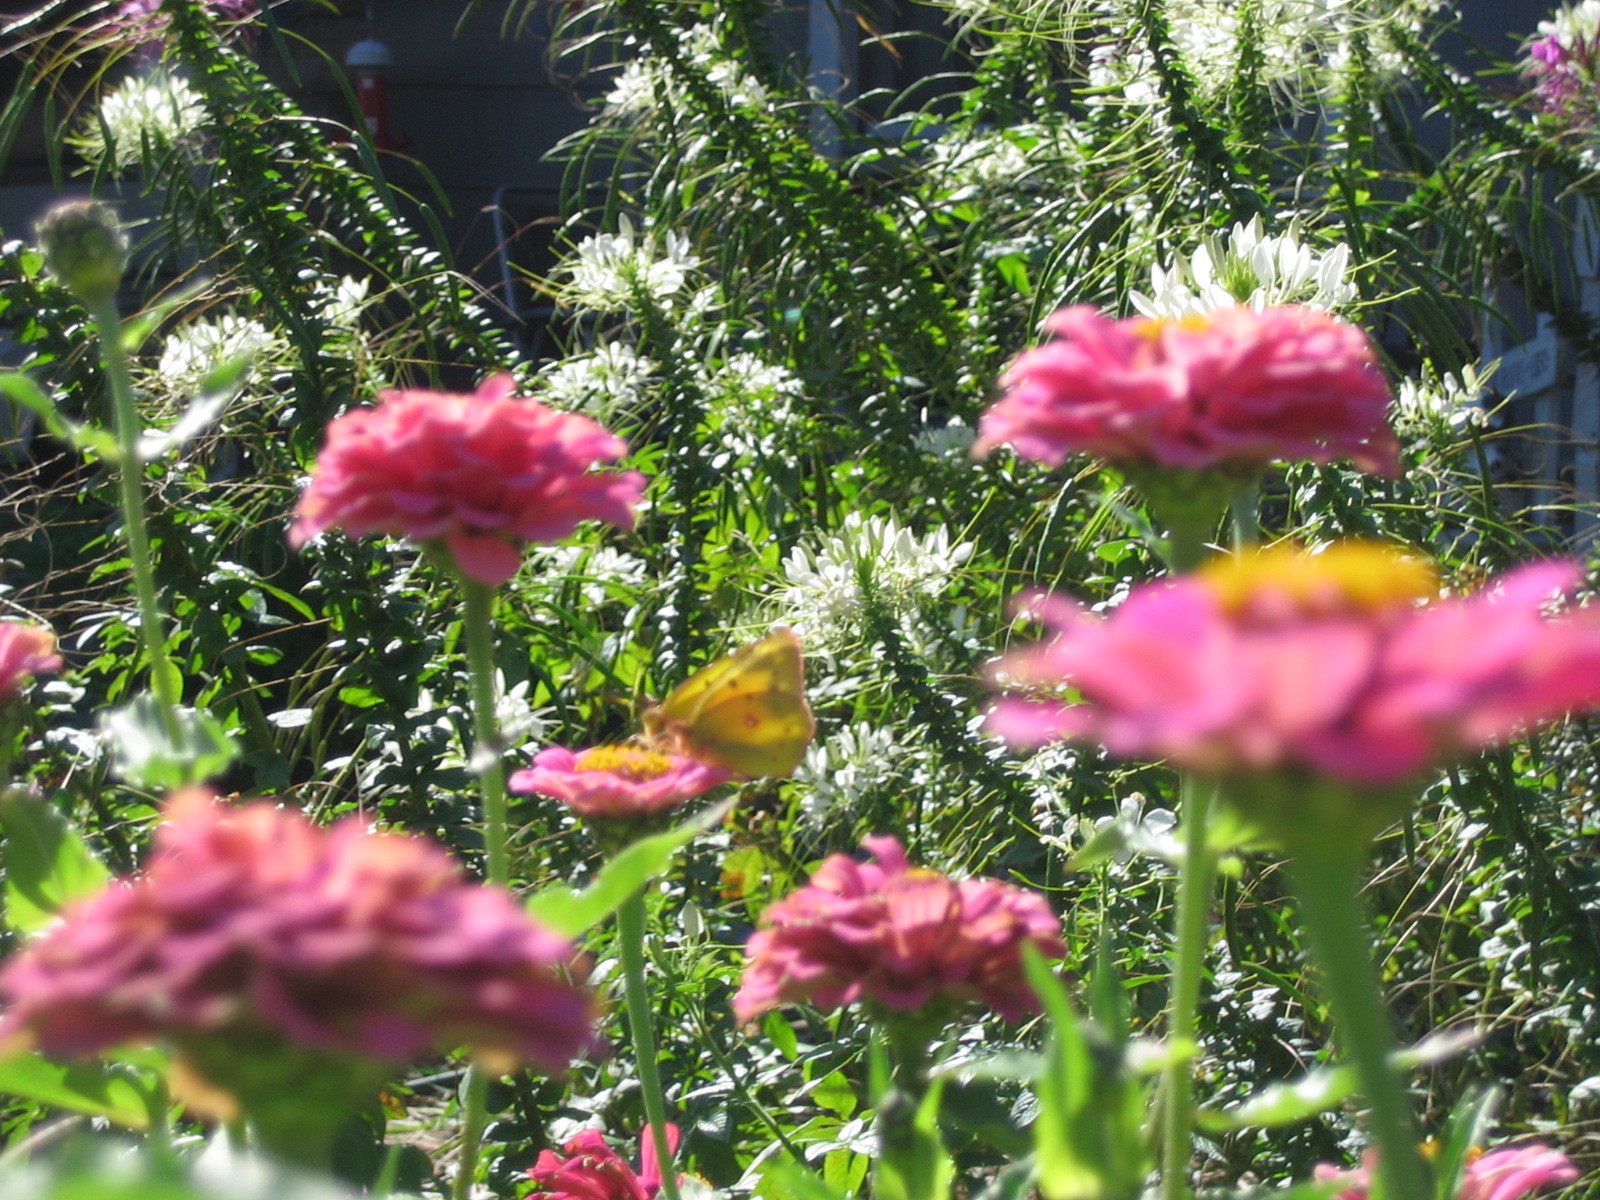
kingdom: Animalia
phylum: Arthropoda
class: Insecta
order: Lepidoptera
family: Pieridae
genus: Colias
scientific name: Colias eurytheme
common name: Alfalfa butterfly
